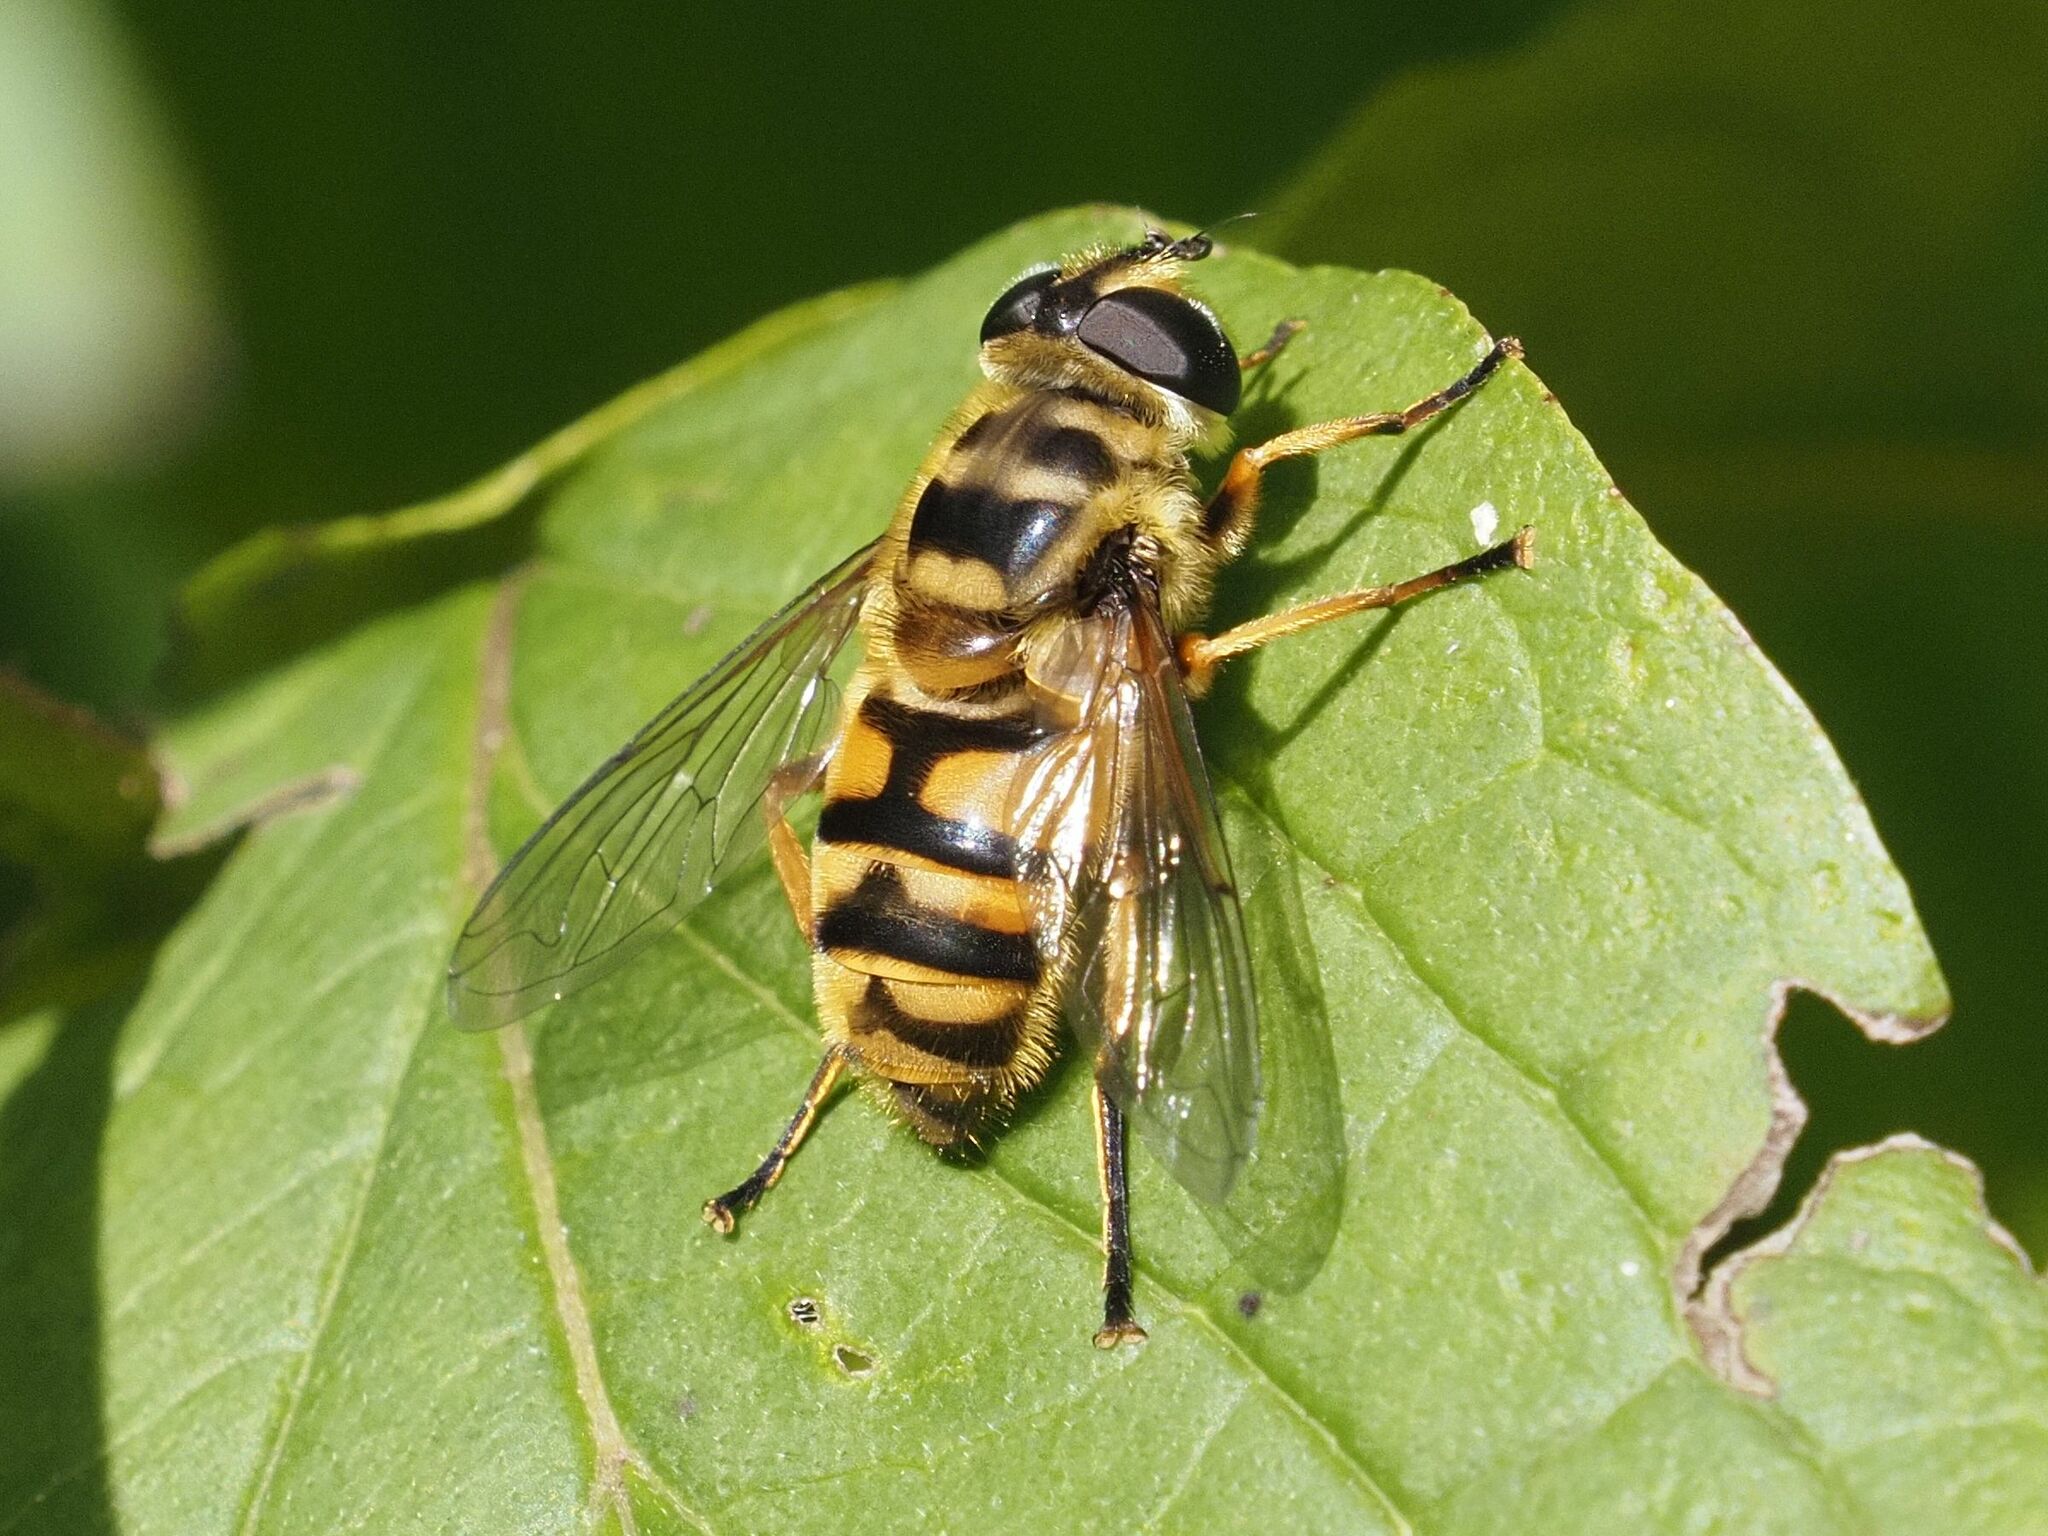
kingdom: Animalia
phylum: Arthropoda
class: Insecta
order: Diptera
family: Syrphidae
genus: Myathropa
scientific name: Myathropa florea
